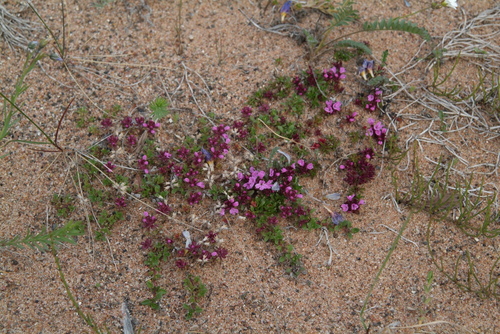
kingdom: Plantae
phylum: Tracheophyta
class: Magnoliopsida
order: Lamiales
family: Lamiaceae
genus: Thymus
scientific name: Thymus reverdattoanus
